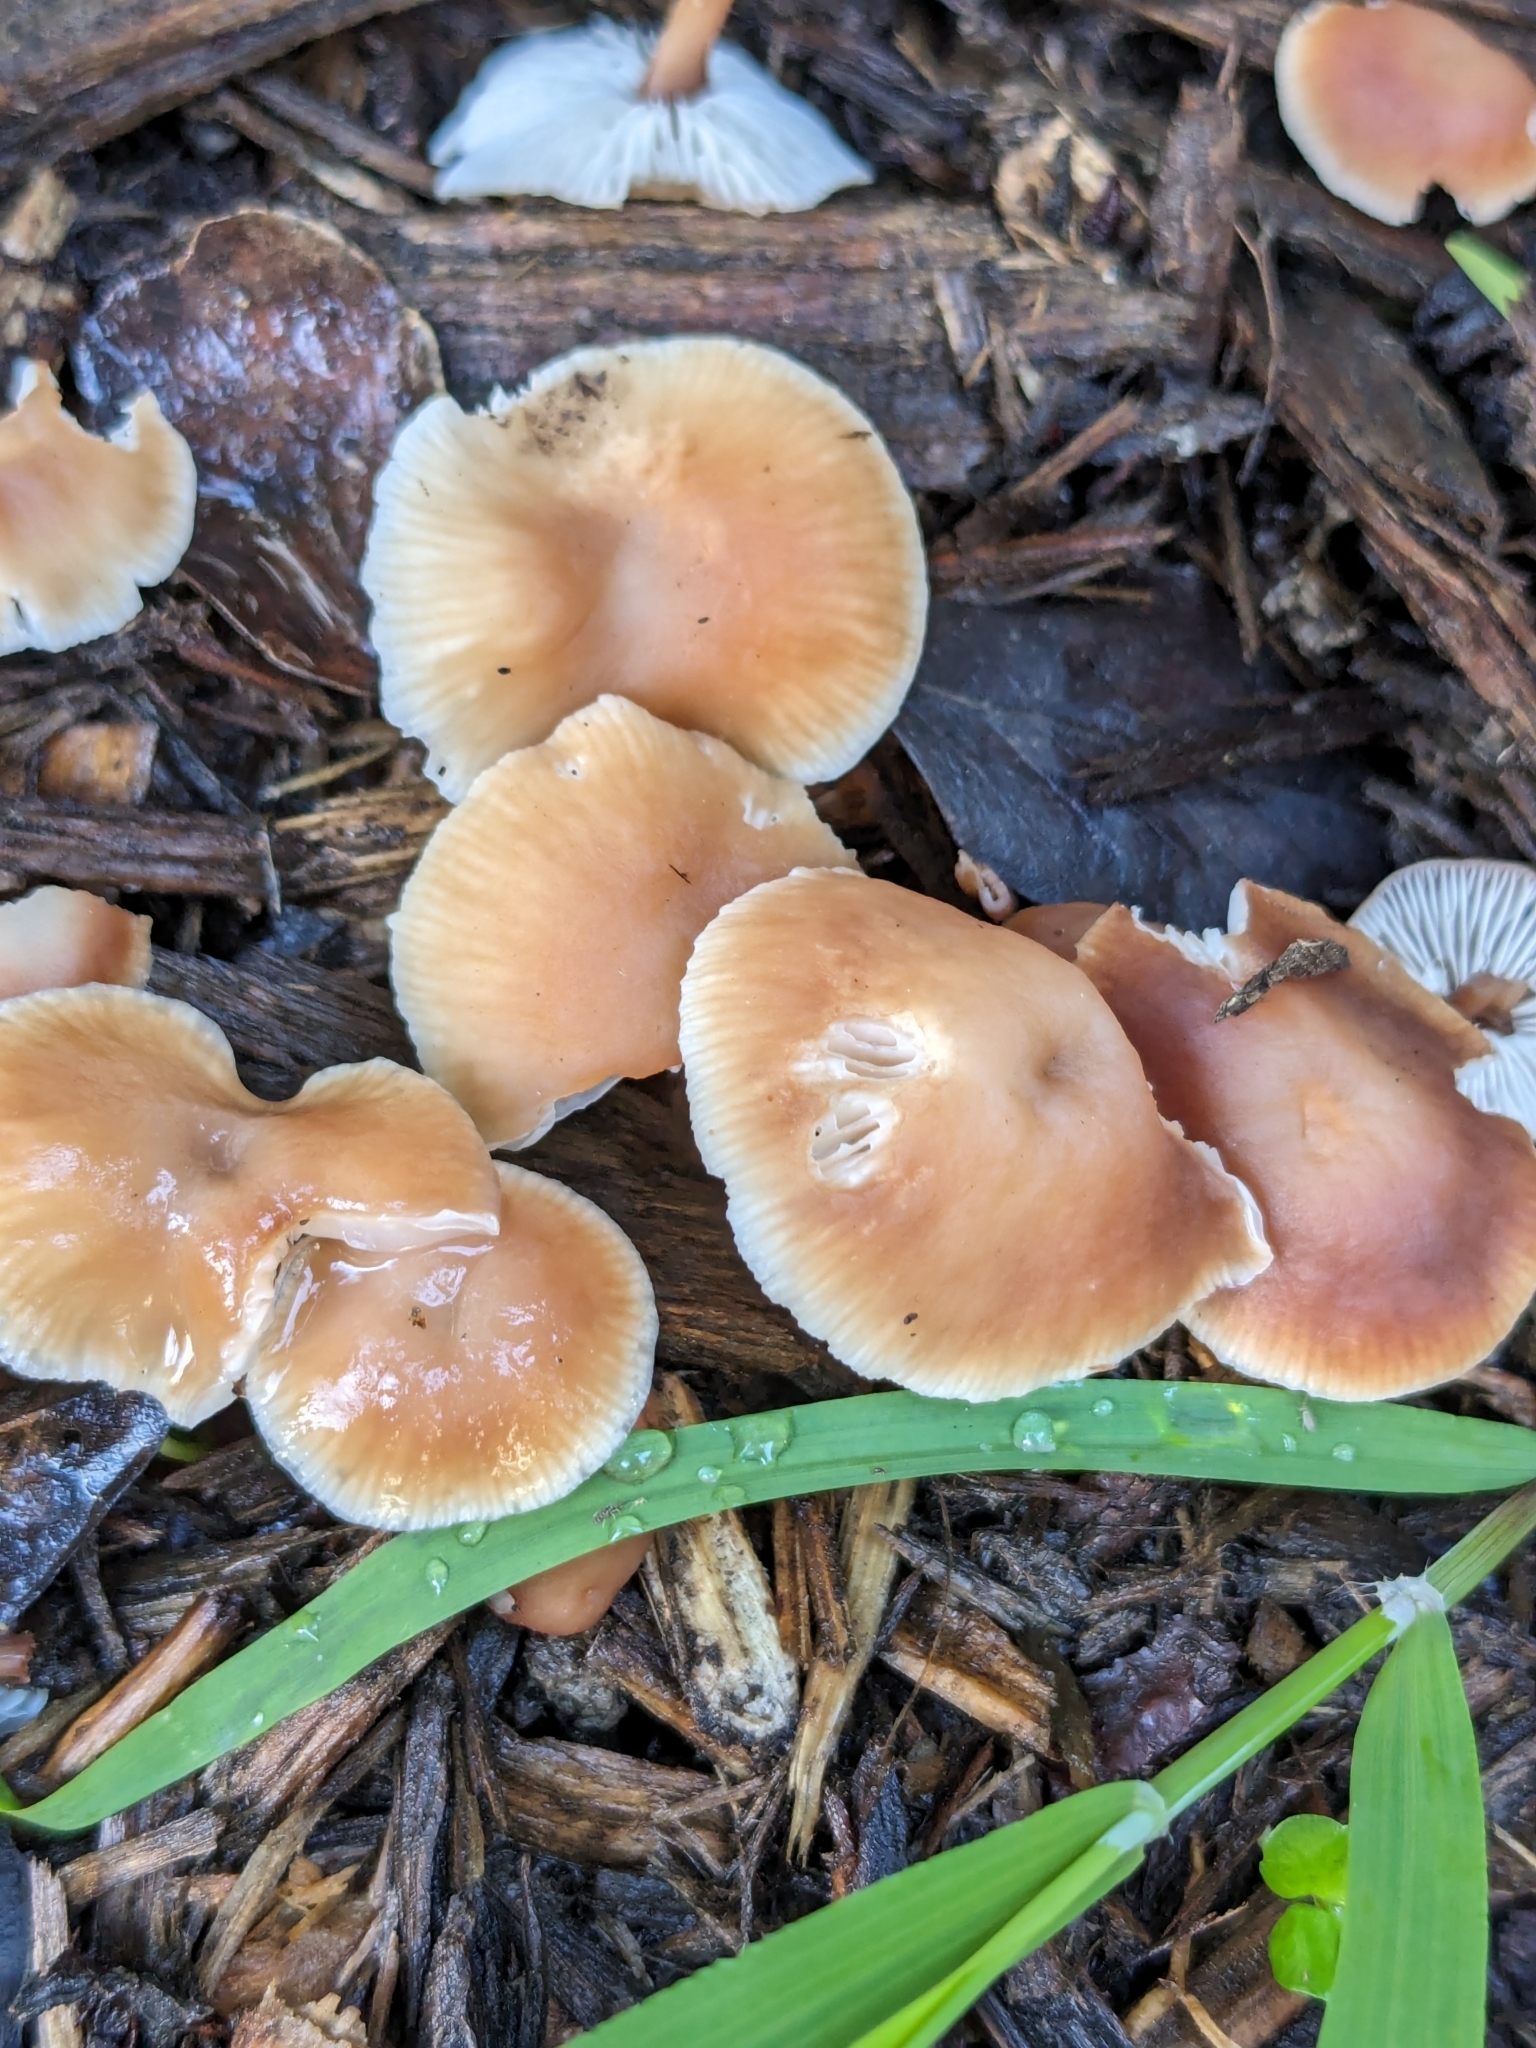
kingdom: Fungi
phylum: Basidiomycota
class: Agaricomycetes
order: Agaricales
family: Omphalotaceae
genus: Gymnopus
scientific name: Gymnopus brassicolens
